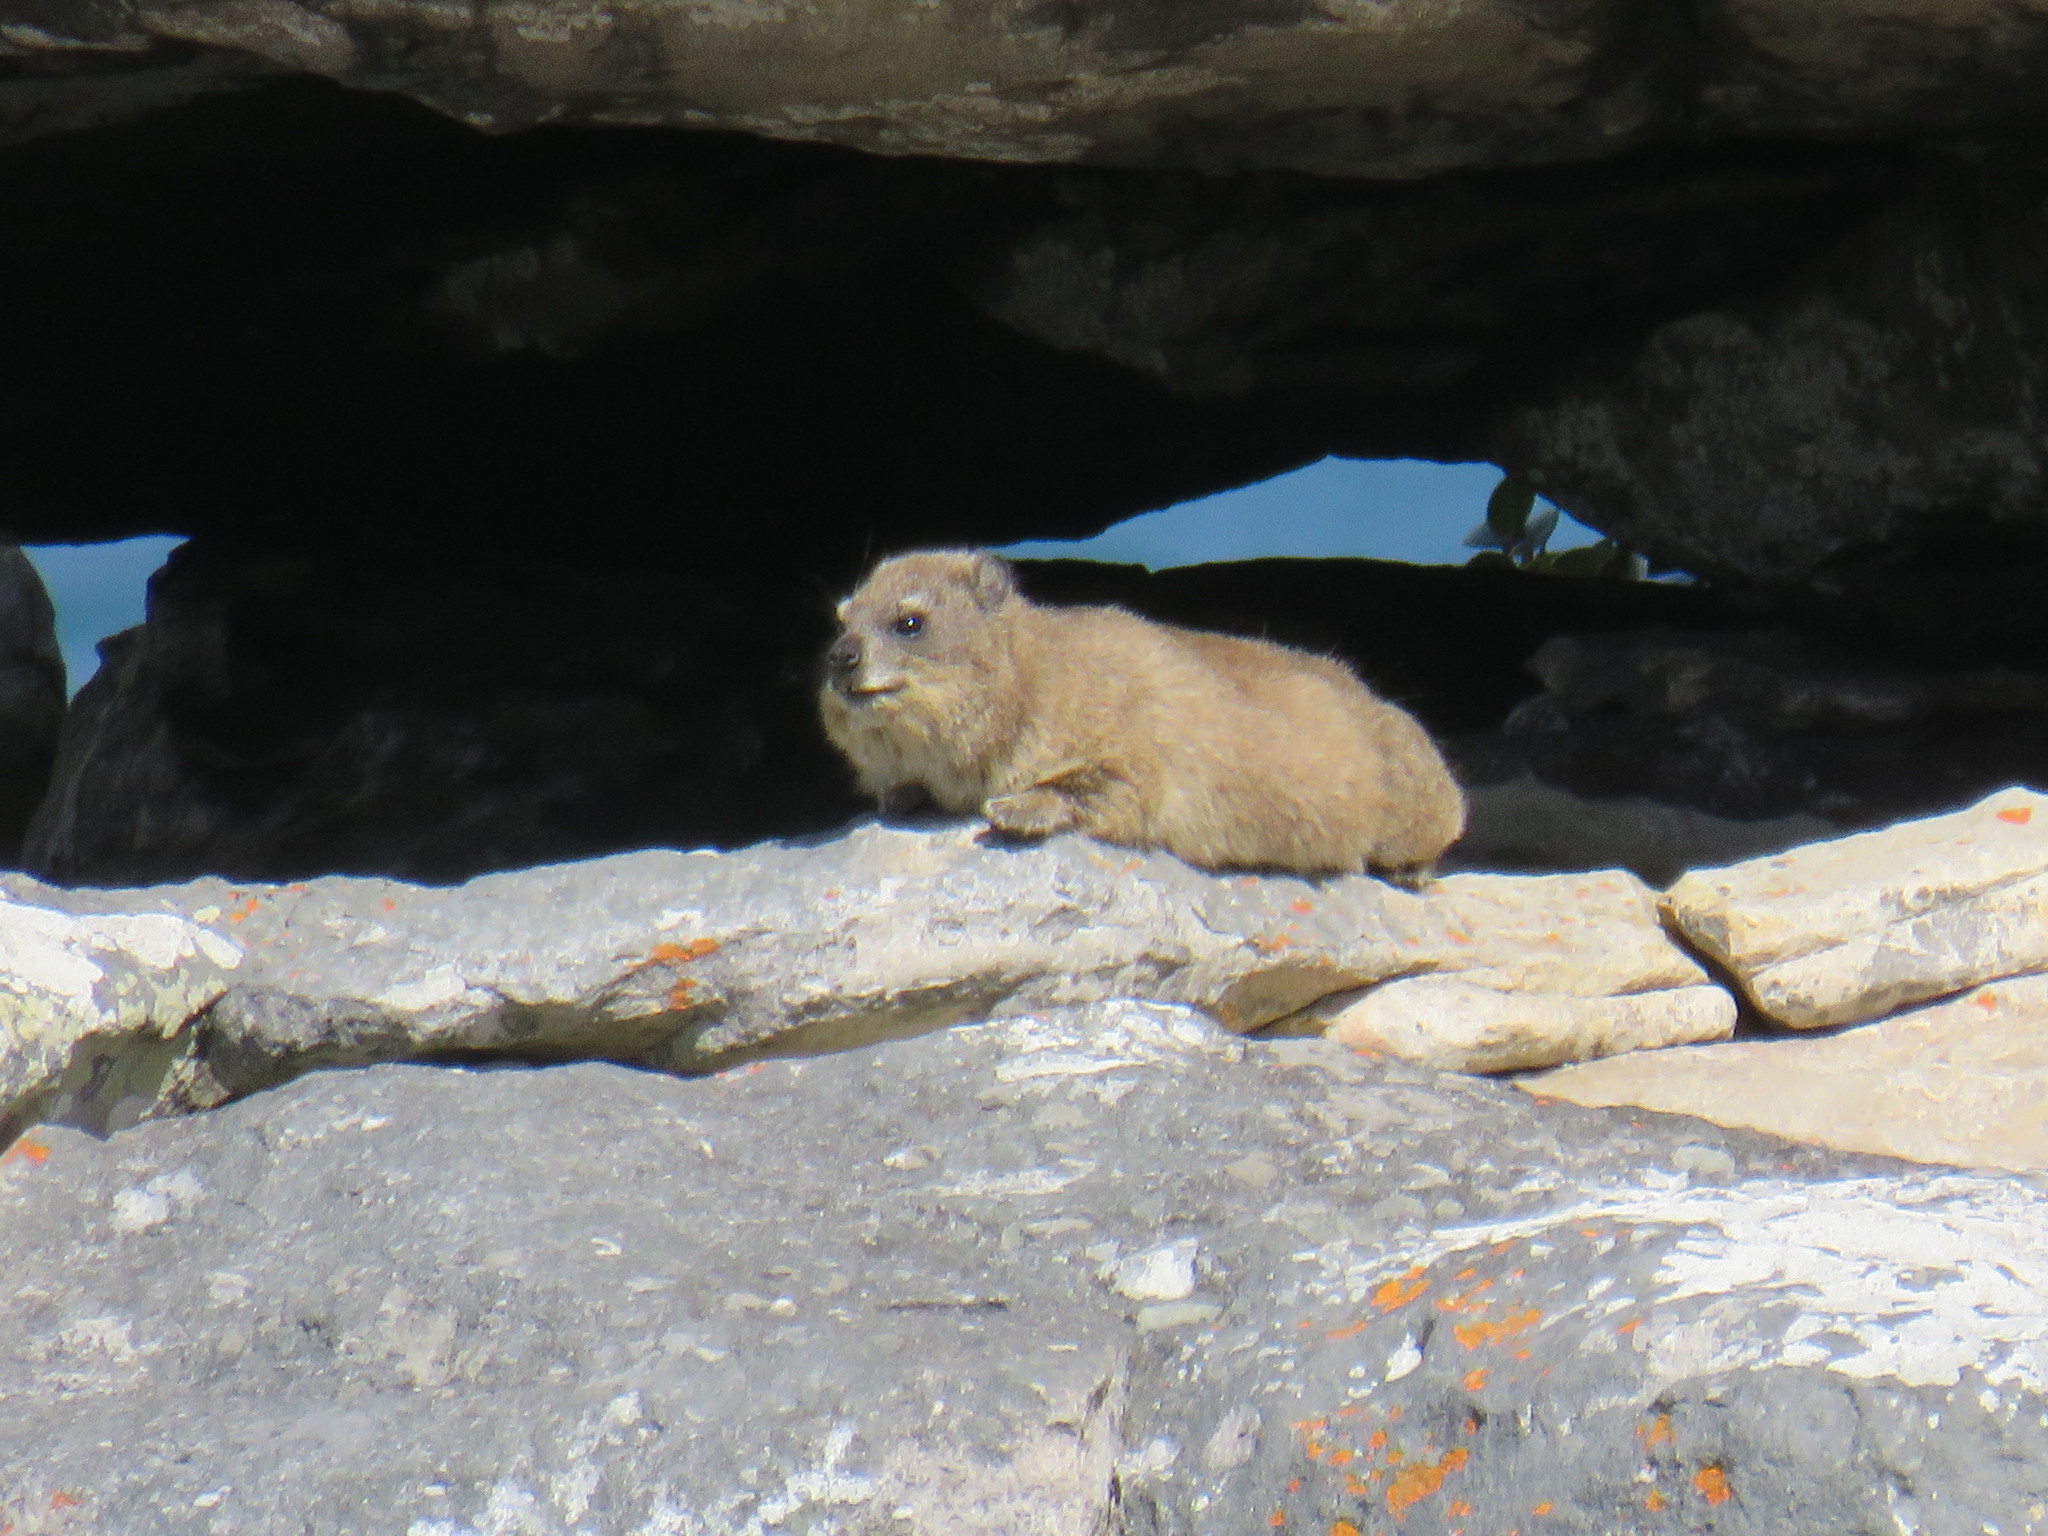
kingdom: Animalia
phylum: Chordata
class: Mammalia
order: Hyracoidea
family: Procaviidae
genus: Procavia
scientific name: Procavia capensis
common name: Rock hyrax
